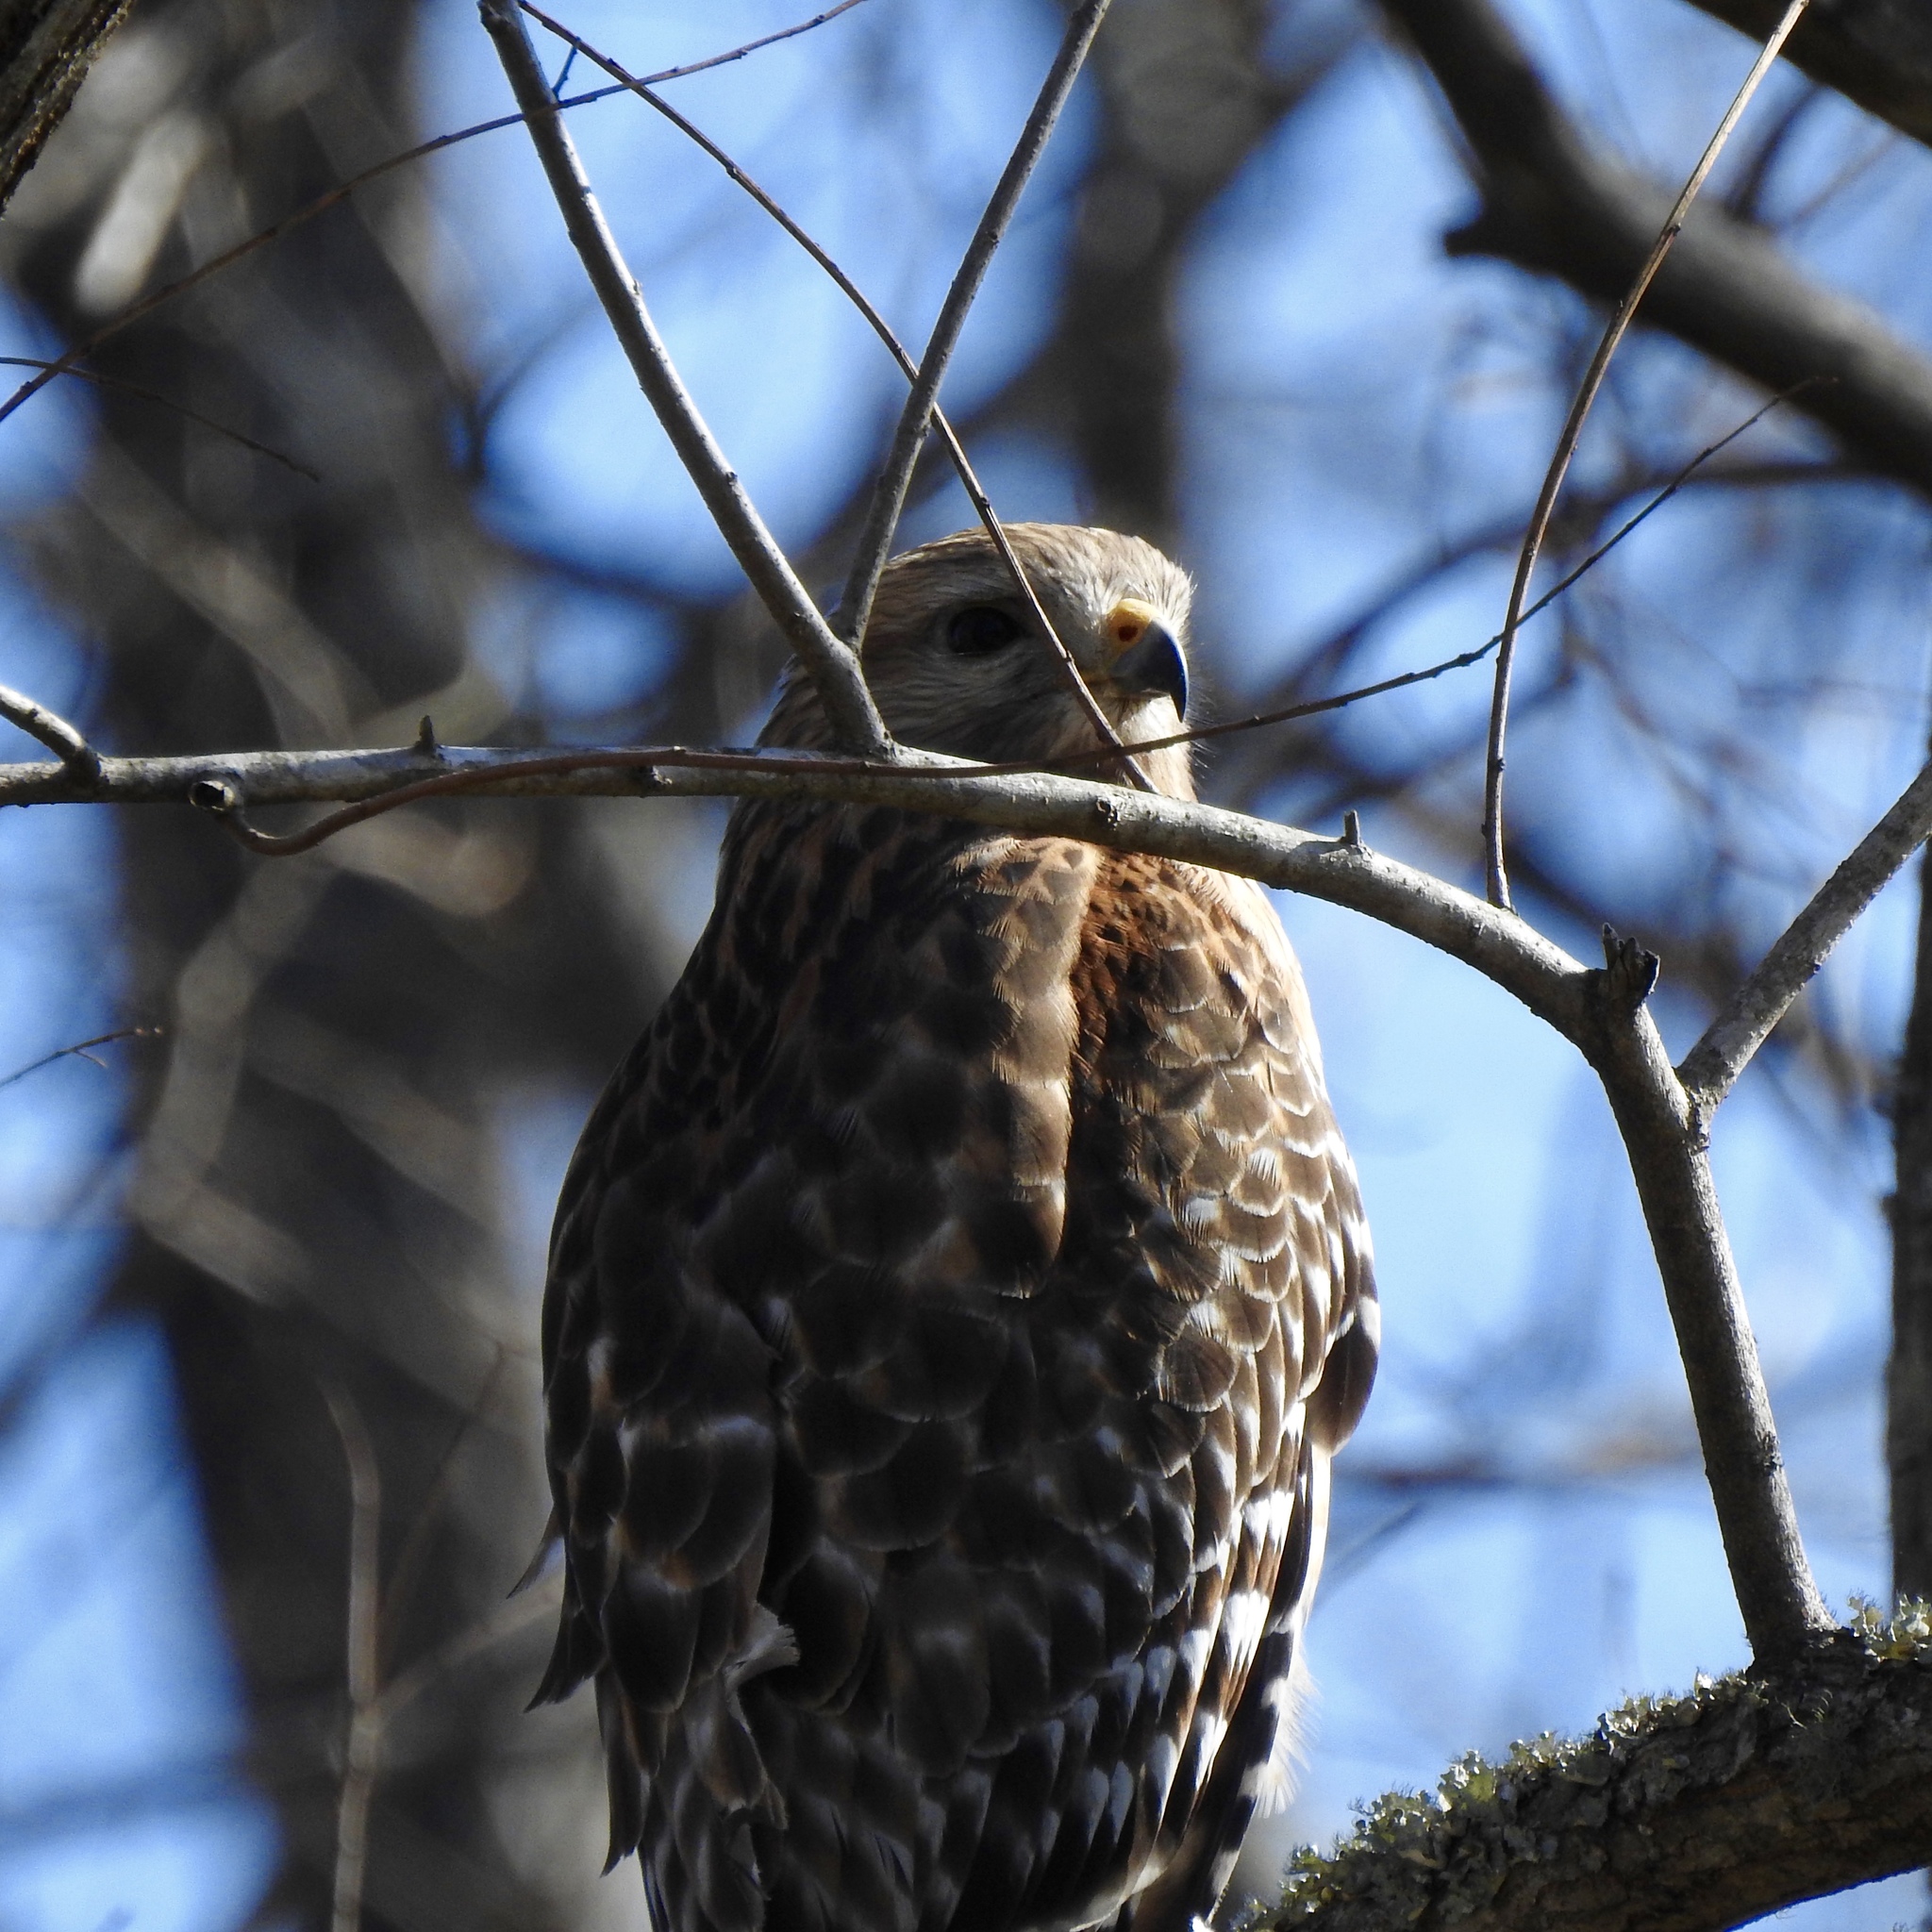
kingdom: Animalia
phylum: Chordata
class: Aves
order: Accipitriformes
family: Accipitridae
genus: Buteo
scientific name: Buteo lineatus
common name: Red-shouldered hawk
